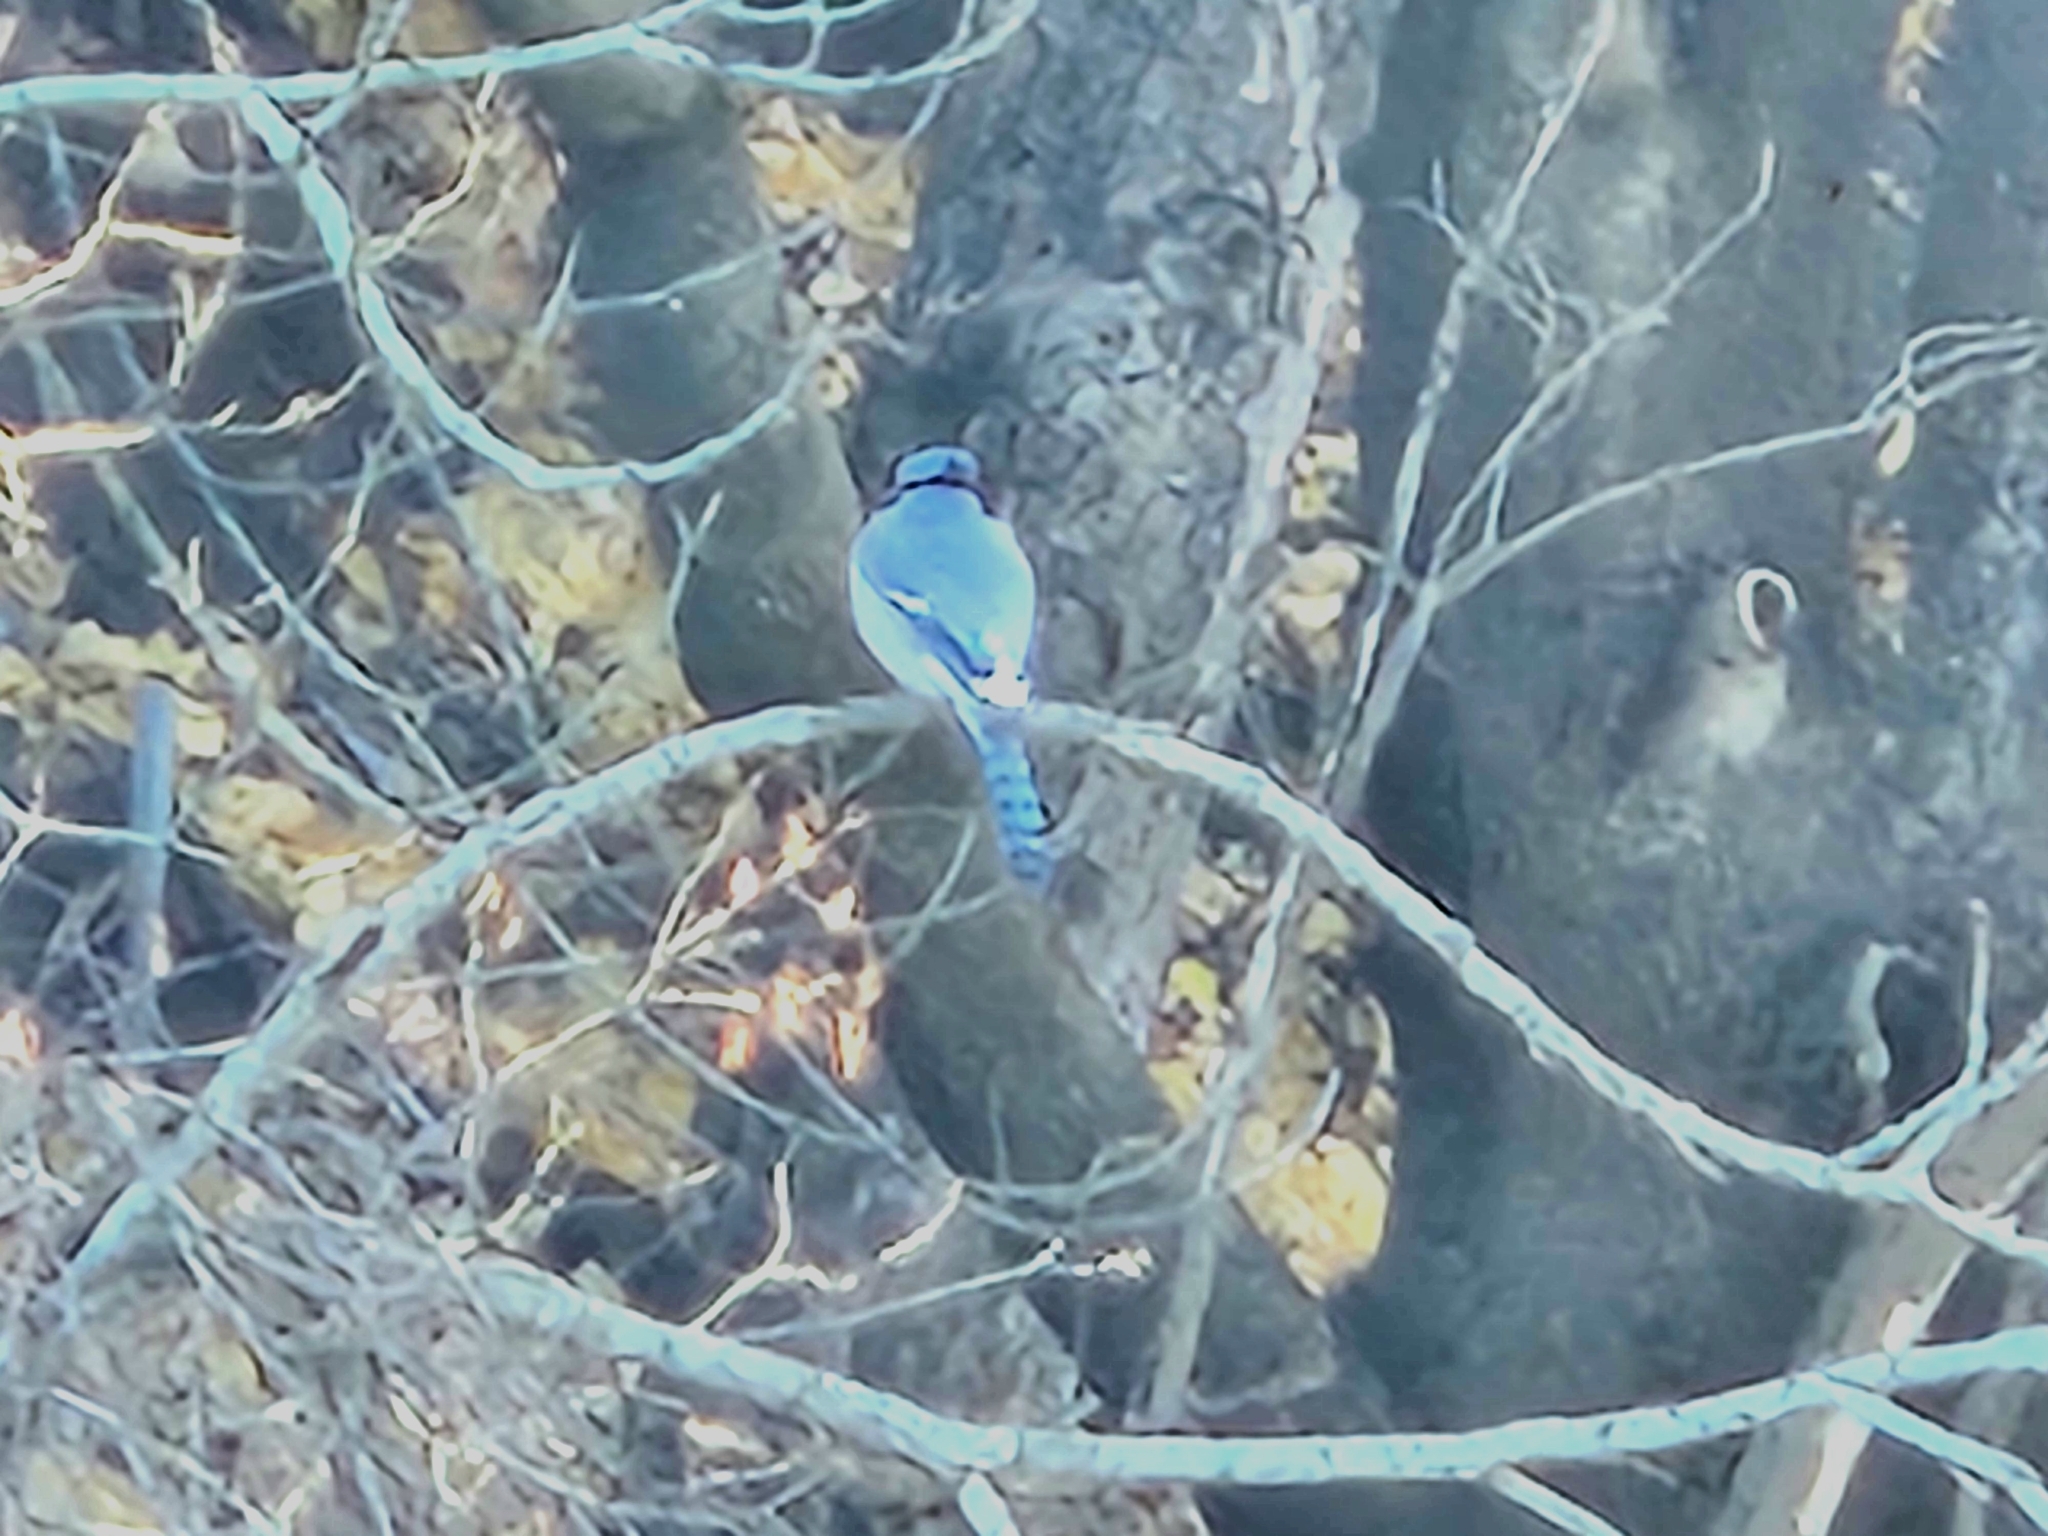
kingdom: Animalia
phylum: Chordata
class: Aves
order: Passeriformes
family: Corvidae
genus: Cyanocitta
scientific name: Cyanocitta cristata
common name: Blue jay
